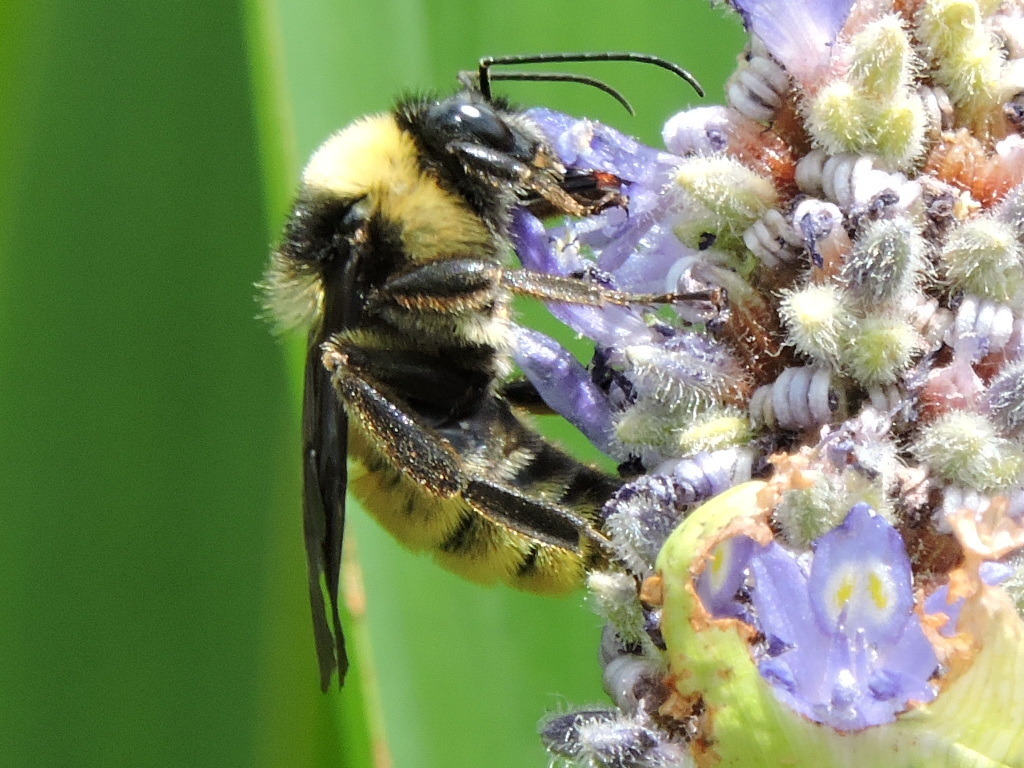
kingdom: Animalia
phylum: Arthropoda
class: Insecta
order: Hymenoptera
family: Apidae
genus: Bombus
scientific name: Bombus pensylvanicus
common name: Bumble bee
